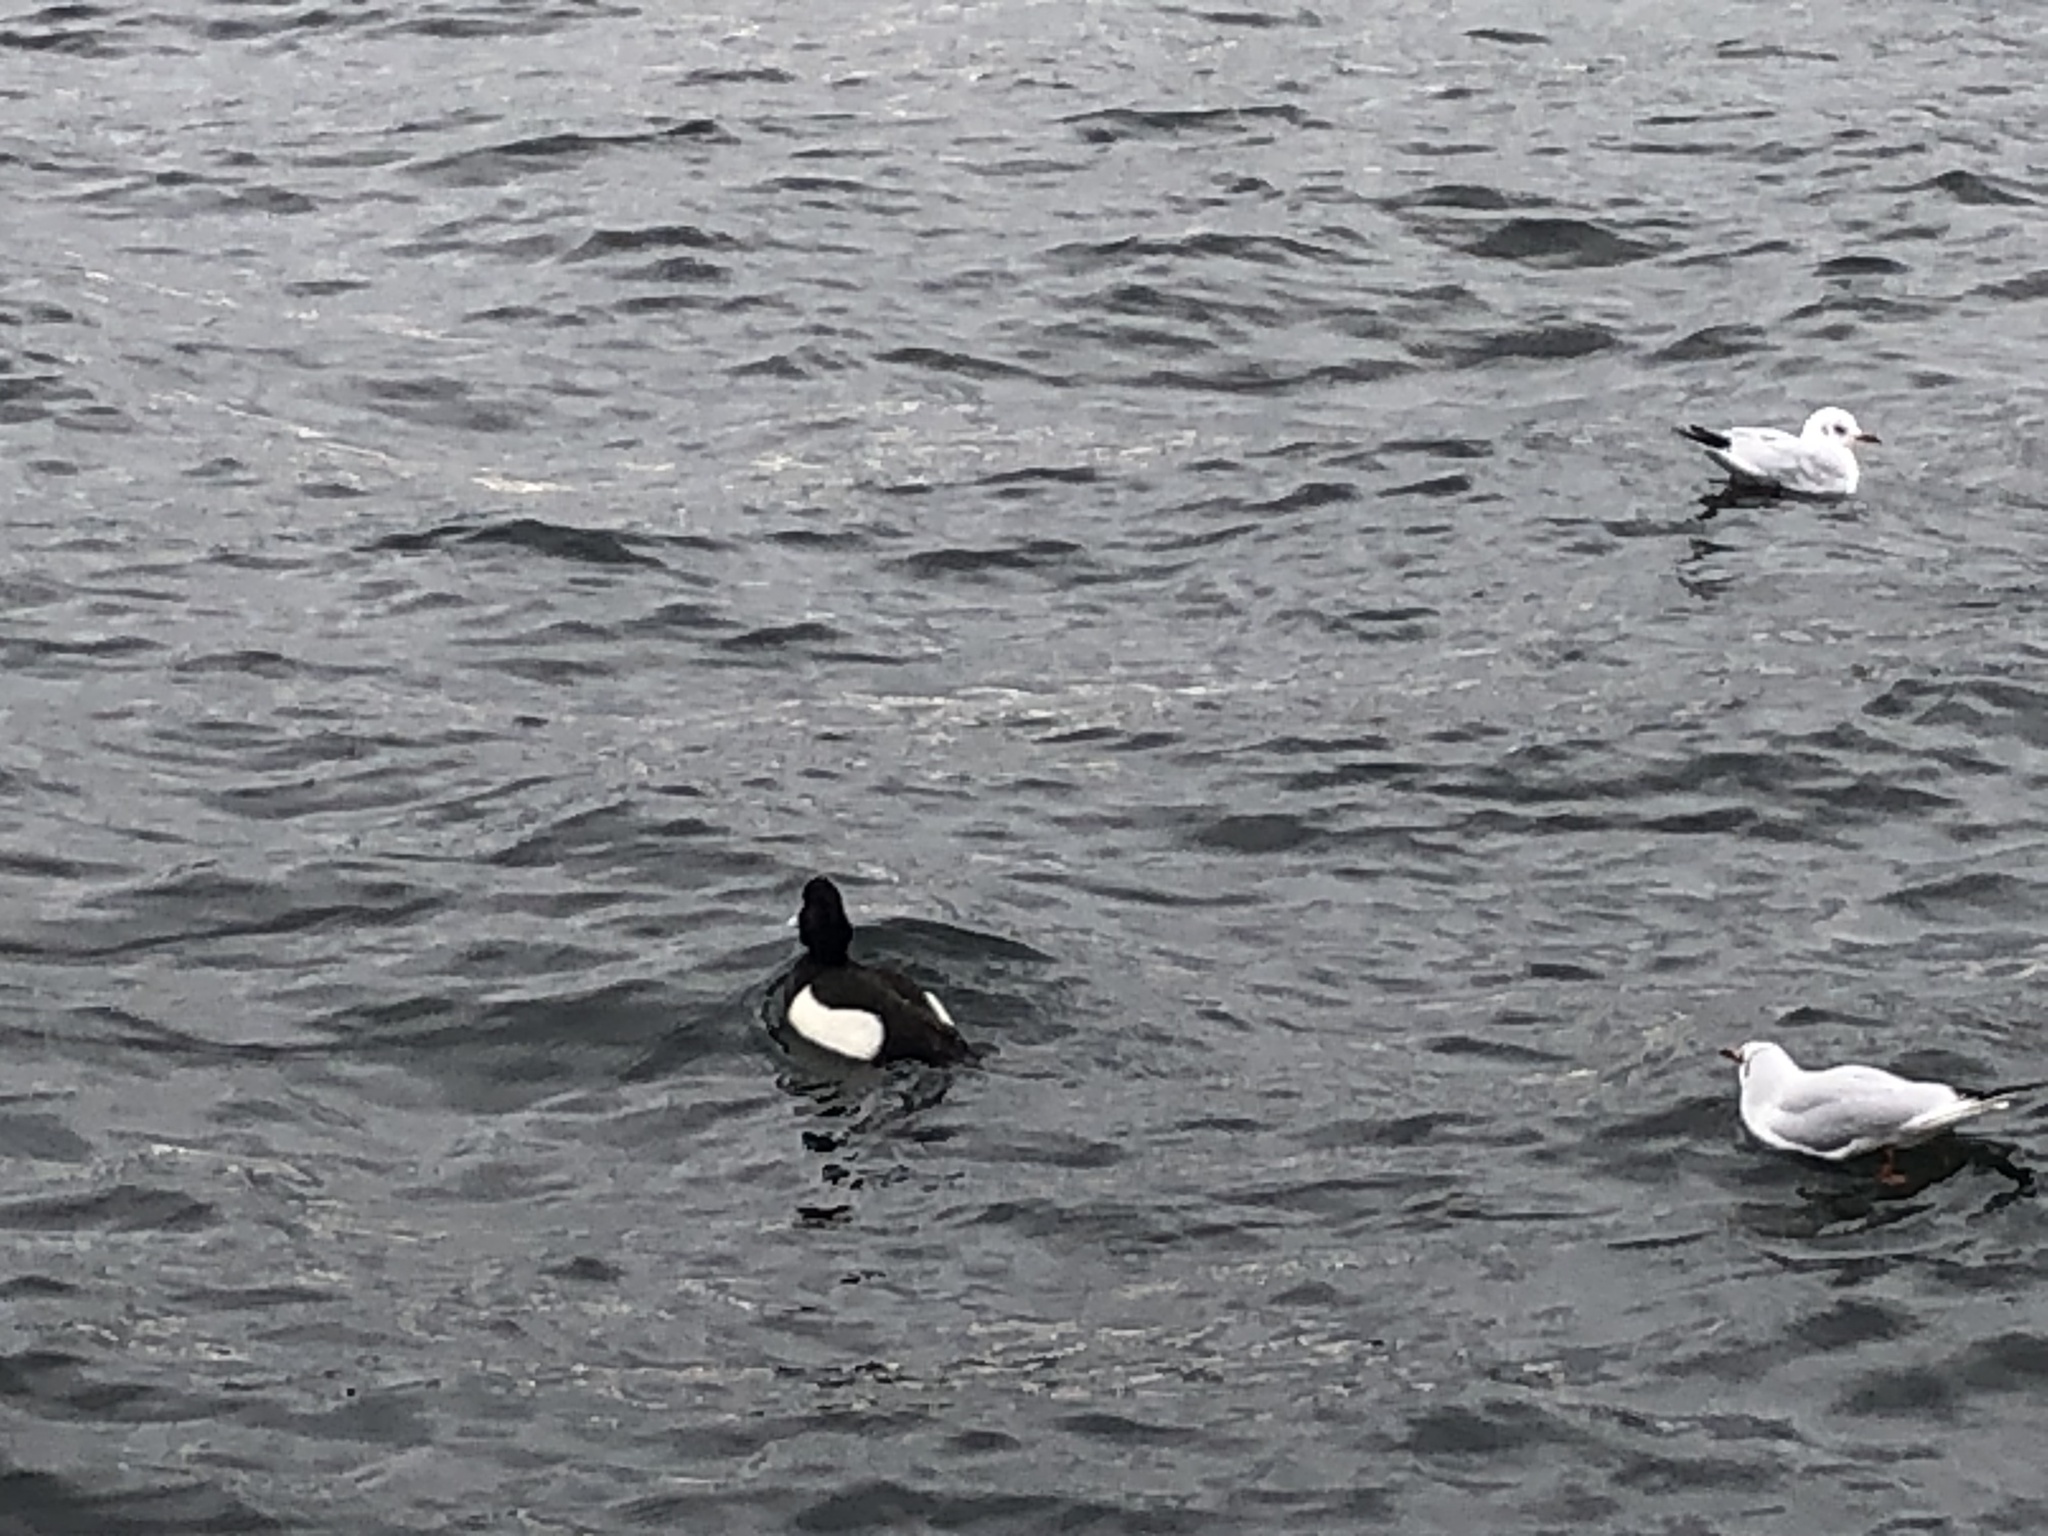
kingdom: Animalia
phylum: Chordata
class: Aves
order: Anseriformes
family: Anatidae
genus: Aythya
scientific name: Aythya fuligula
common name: Tufted duck
